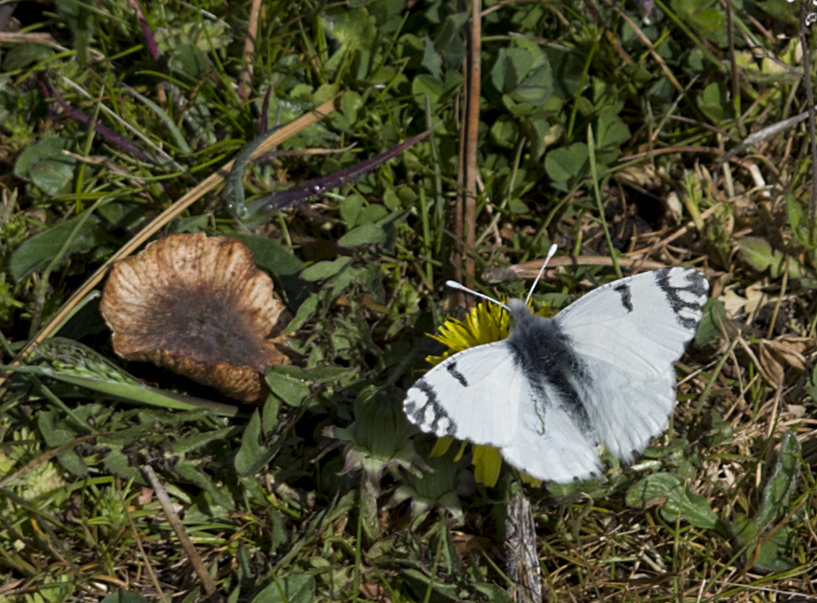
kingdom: Animalia
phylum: Arthropoda
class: Insecta
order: Lepidoptera
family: Pieridae
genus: Euchloe
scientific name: Euchloe ausonia
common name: Eastern dappled white
